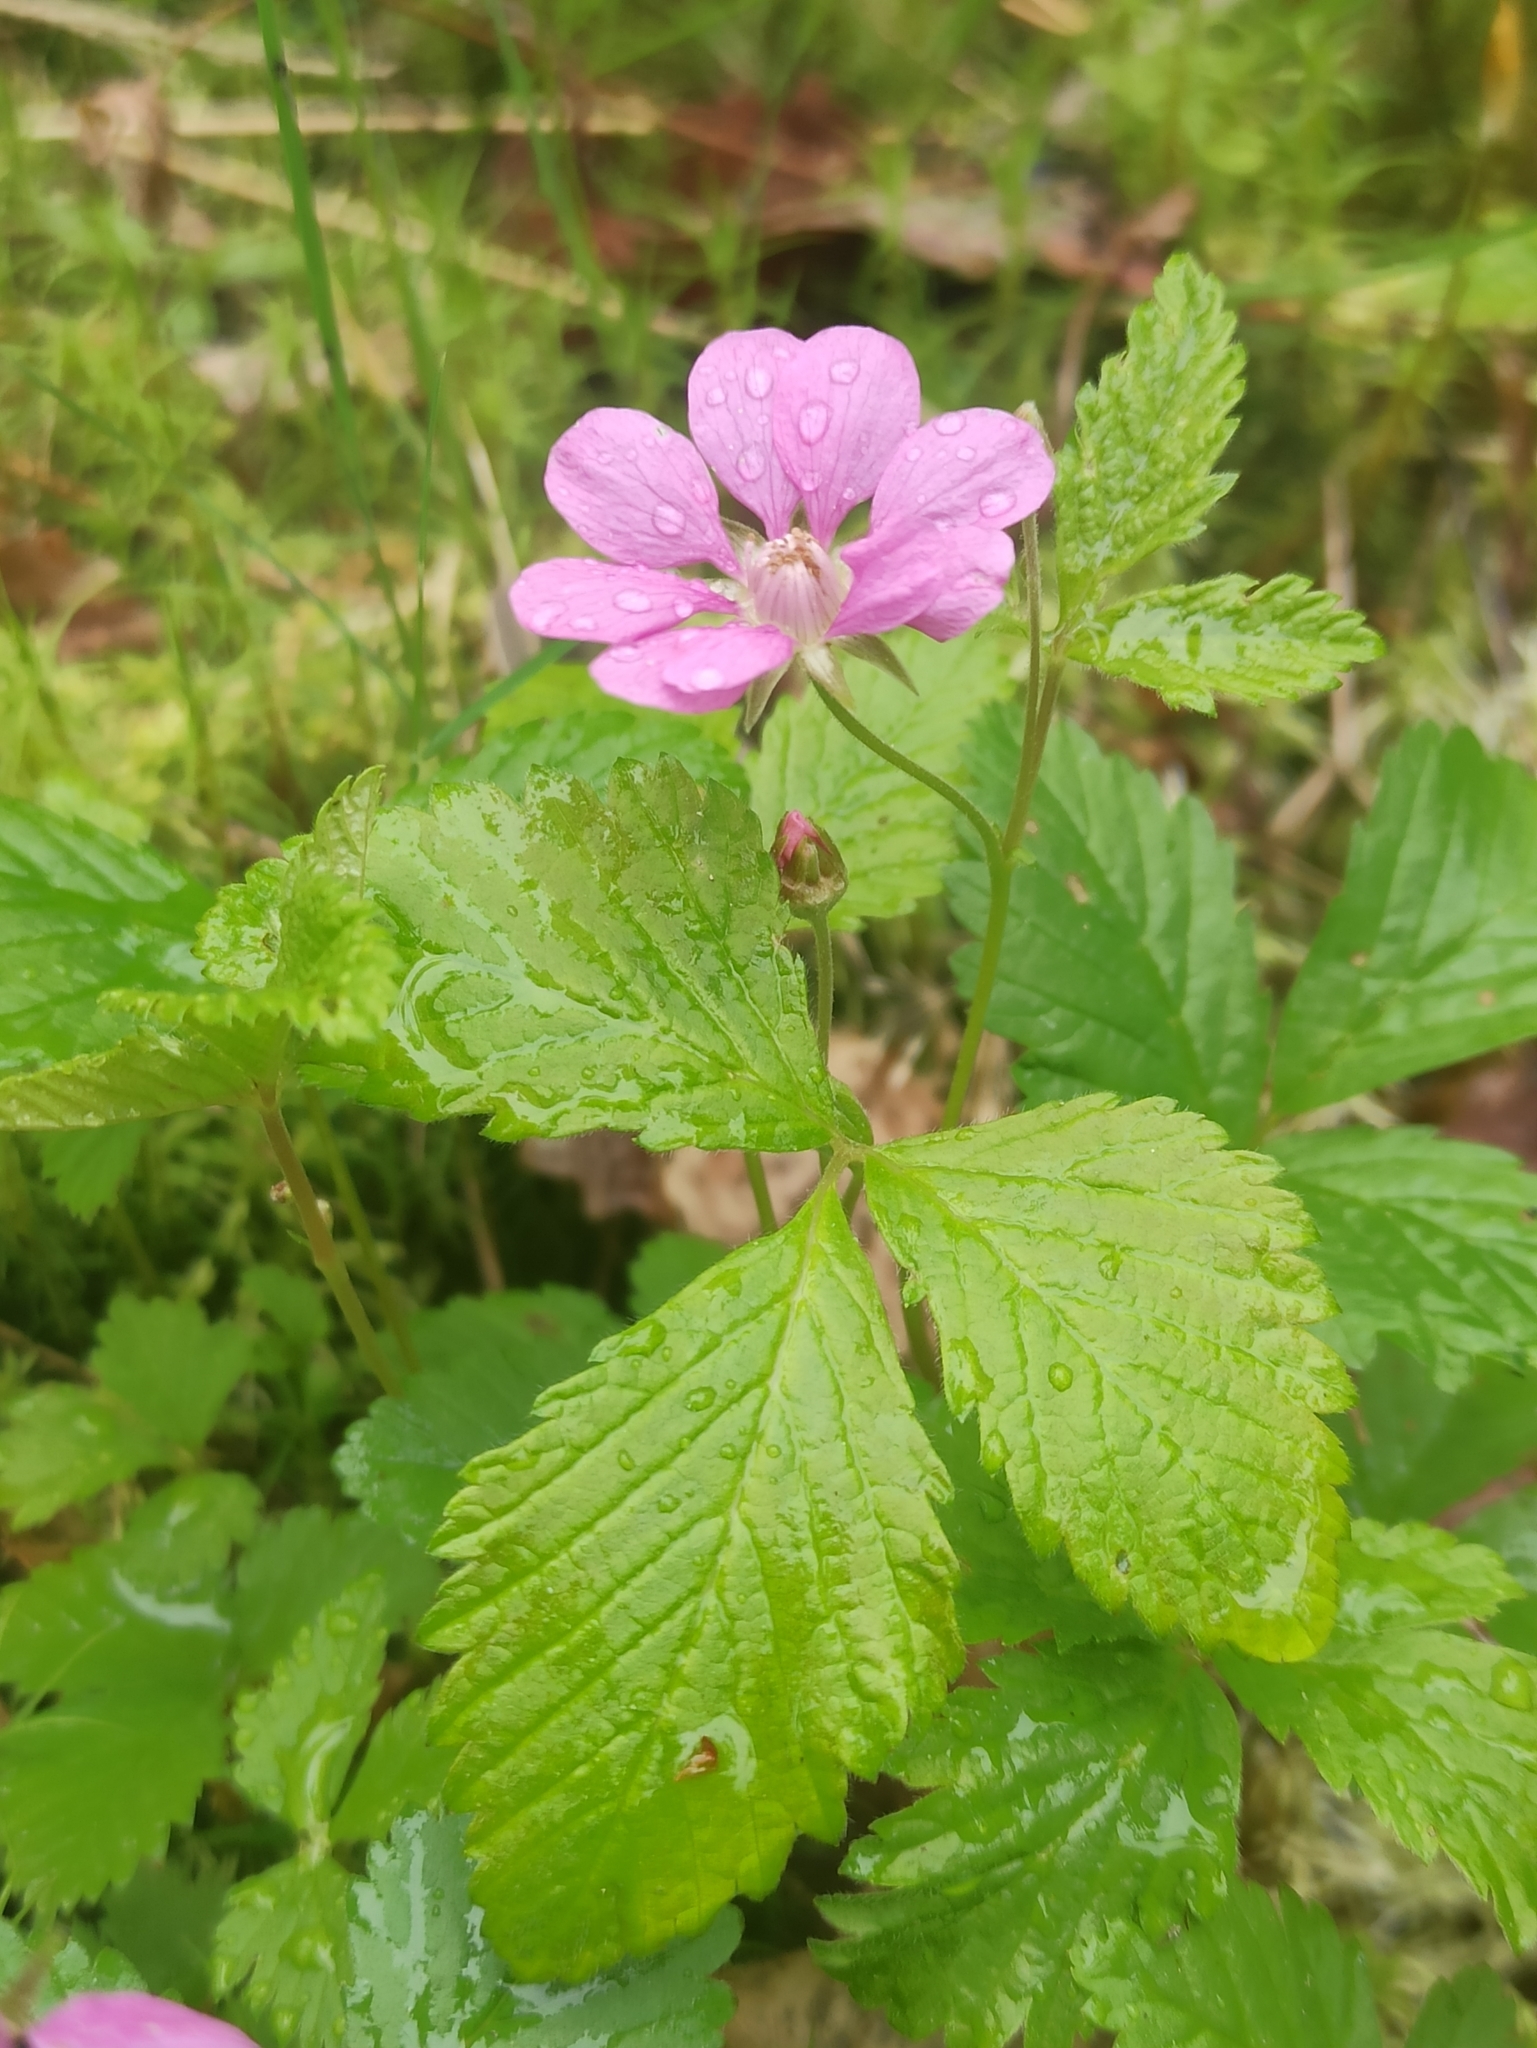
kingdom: Plantae
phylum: Tracheophyta
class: Magnoliopsida
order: Rosales
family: Rosaceae
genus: Rubus
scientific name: Rubus arcticus
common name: Arctic bramble
